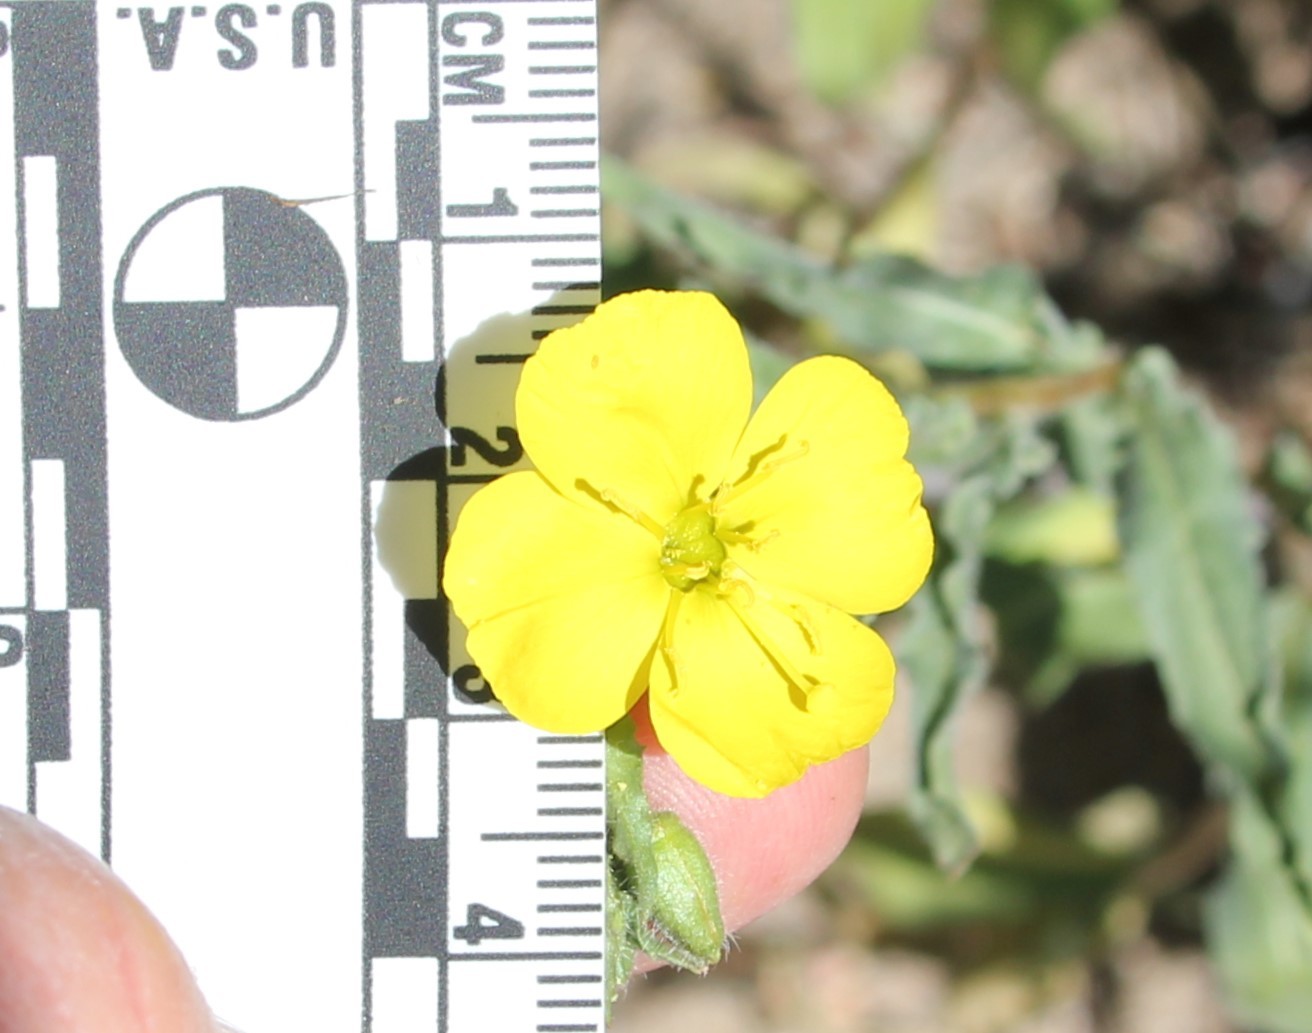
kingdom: Plantae
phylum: Tracheophyta
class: Magnoliopsida
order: Myrtales
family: Onagraceae
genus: Camissoniopsis
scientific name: Camissoniopsis bistorta
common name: Southern suncup
